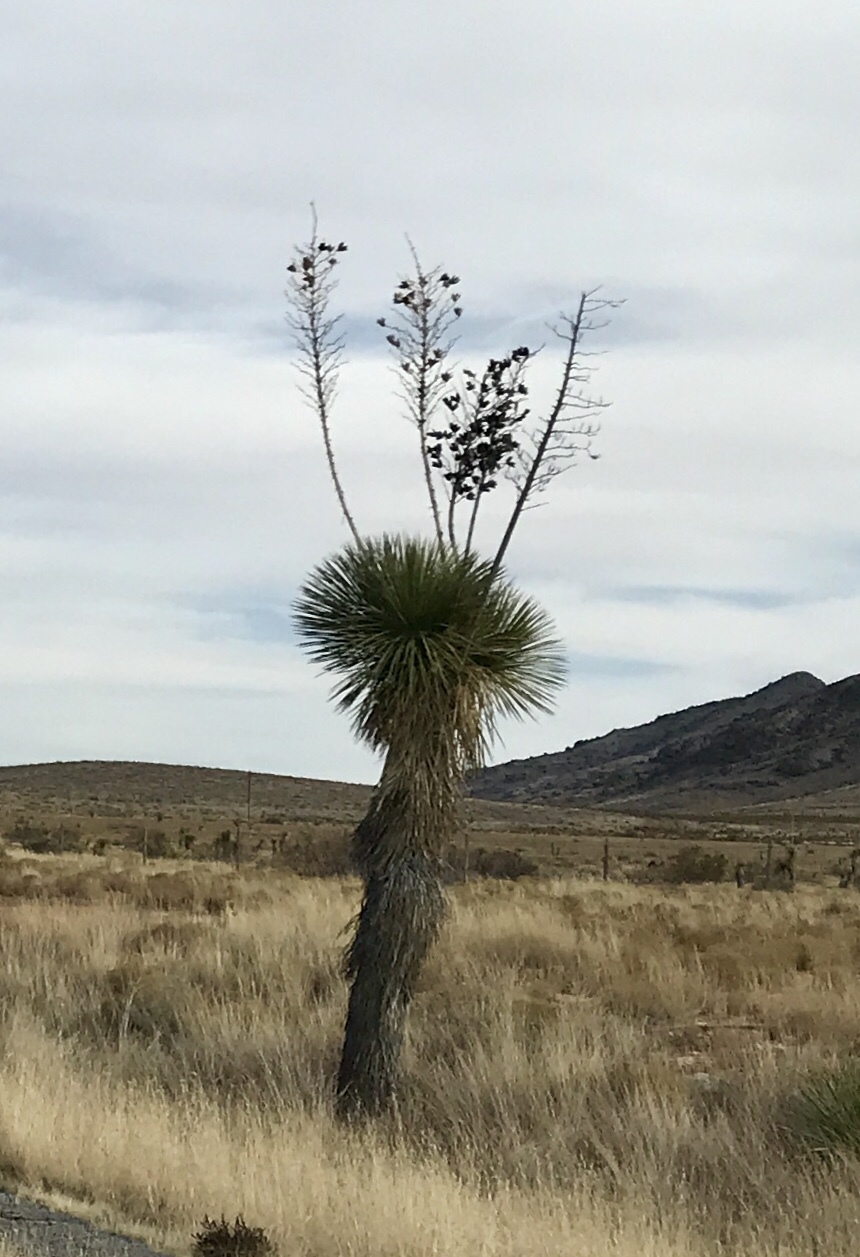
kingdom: Plantae
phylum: Tracheophyta
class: Liliopsida
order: Asparagales
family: Asparagaceae
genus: Yucca
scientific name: Yucca elata
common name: Palmella
